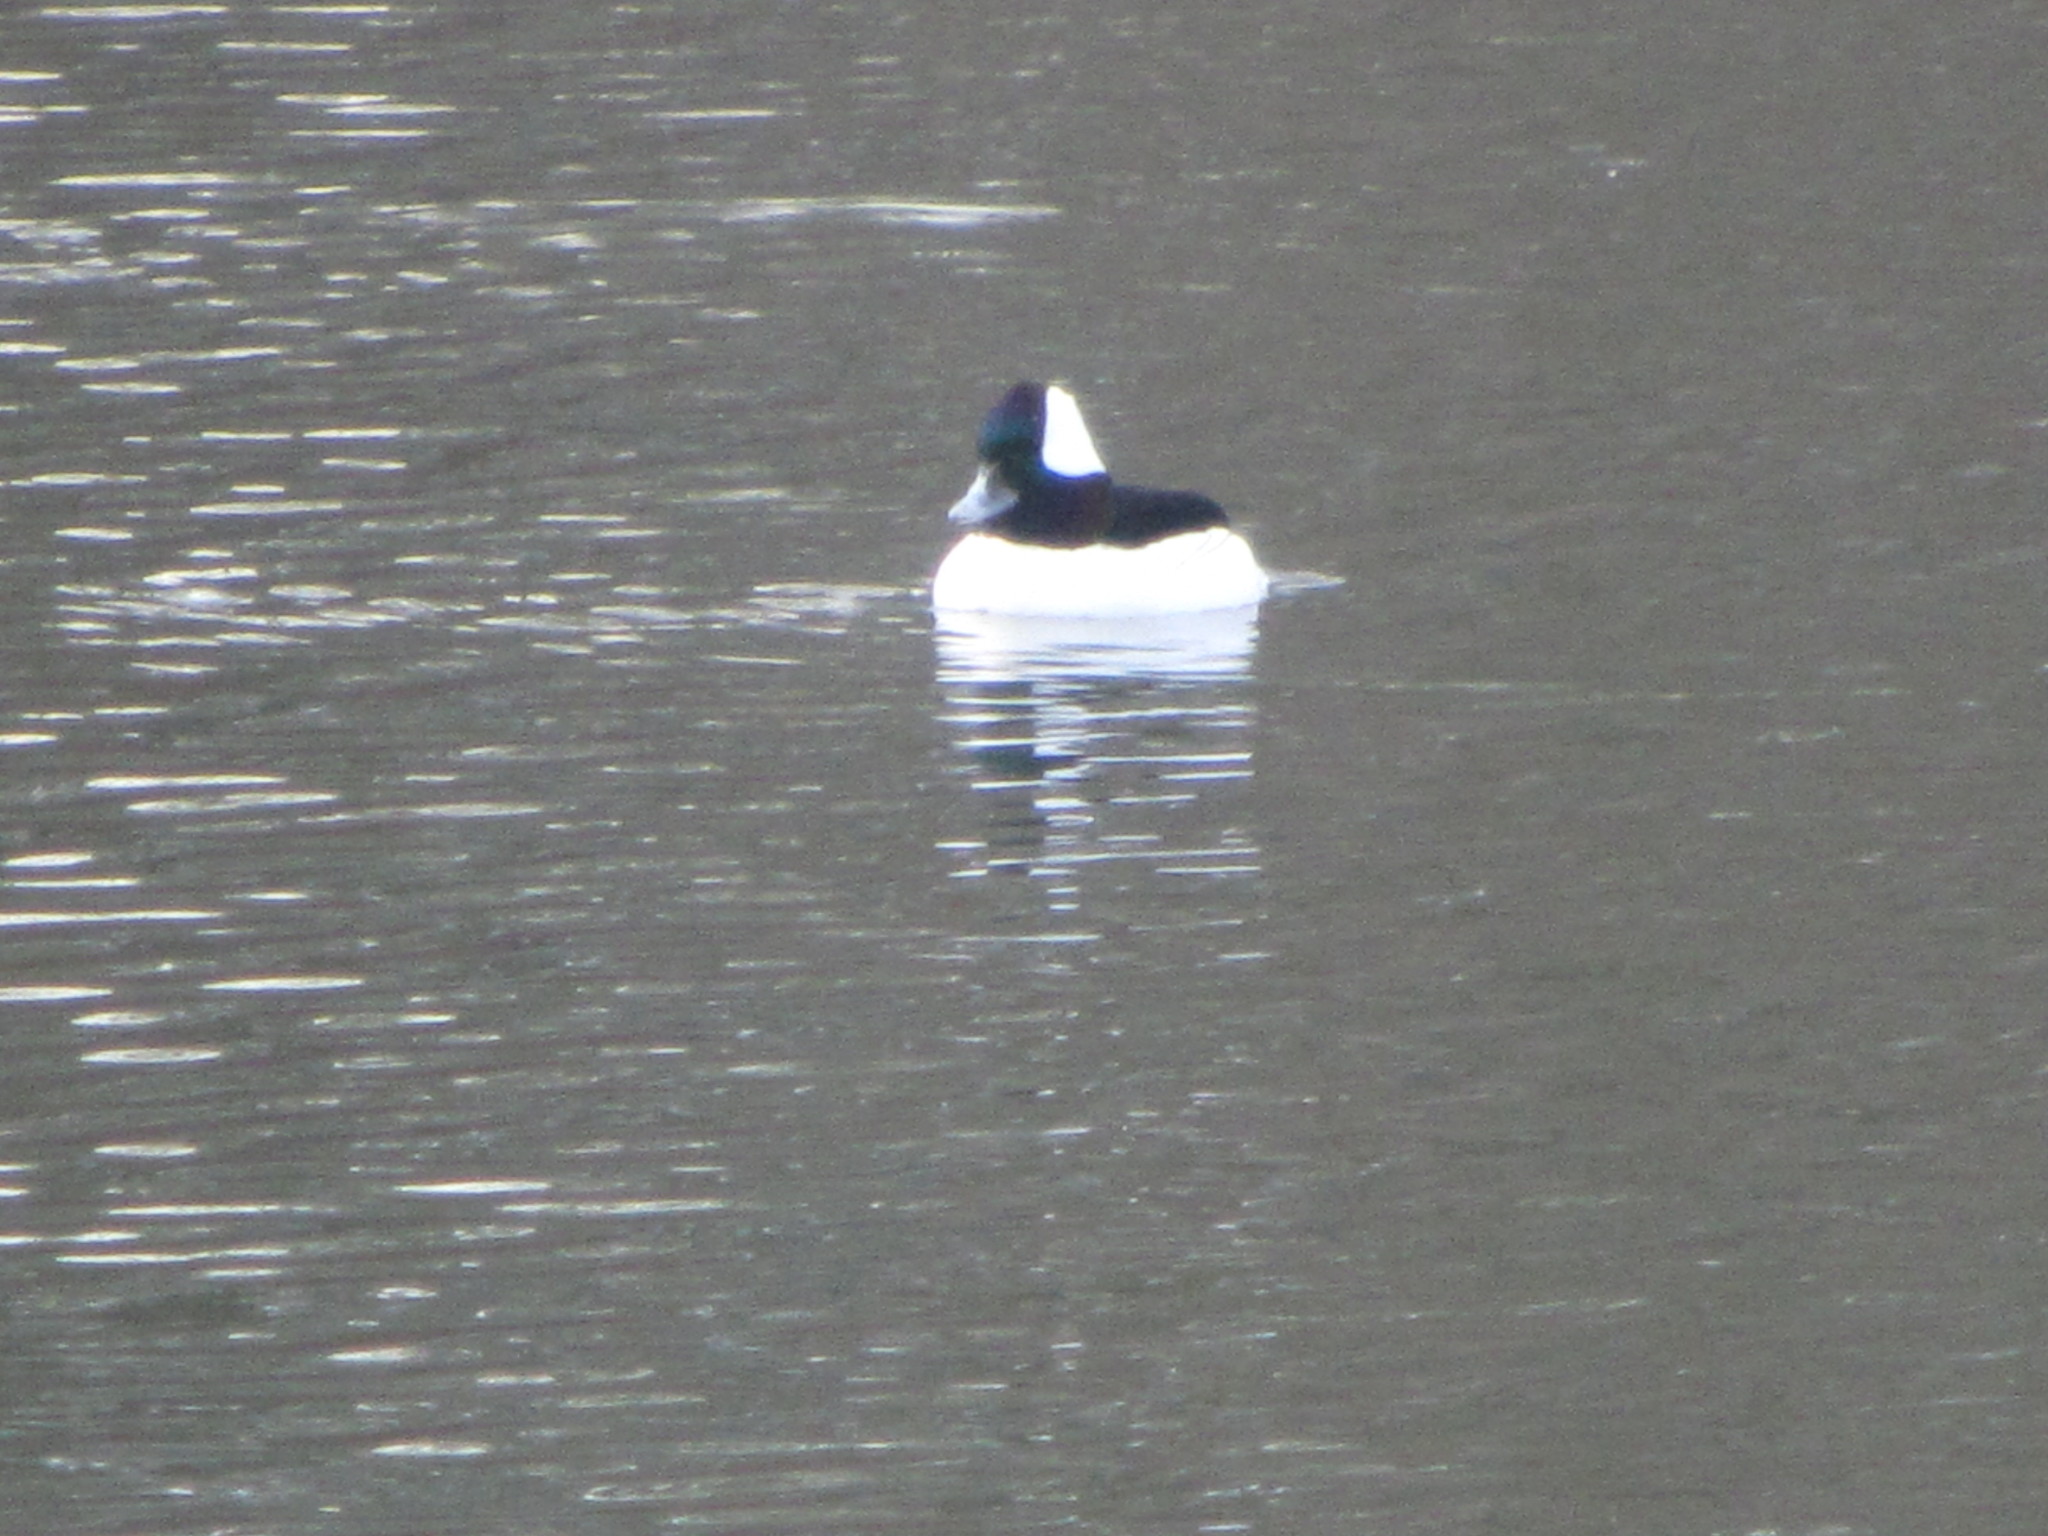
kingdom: Animalia
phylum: Chordata
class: Aves
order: Anseriformes
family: Anatidae
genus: Bucephala
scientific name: Bucephala albeola
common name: Bufflehead
